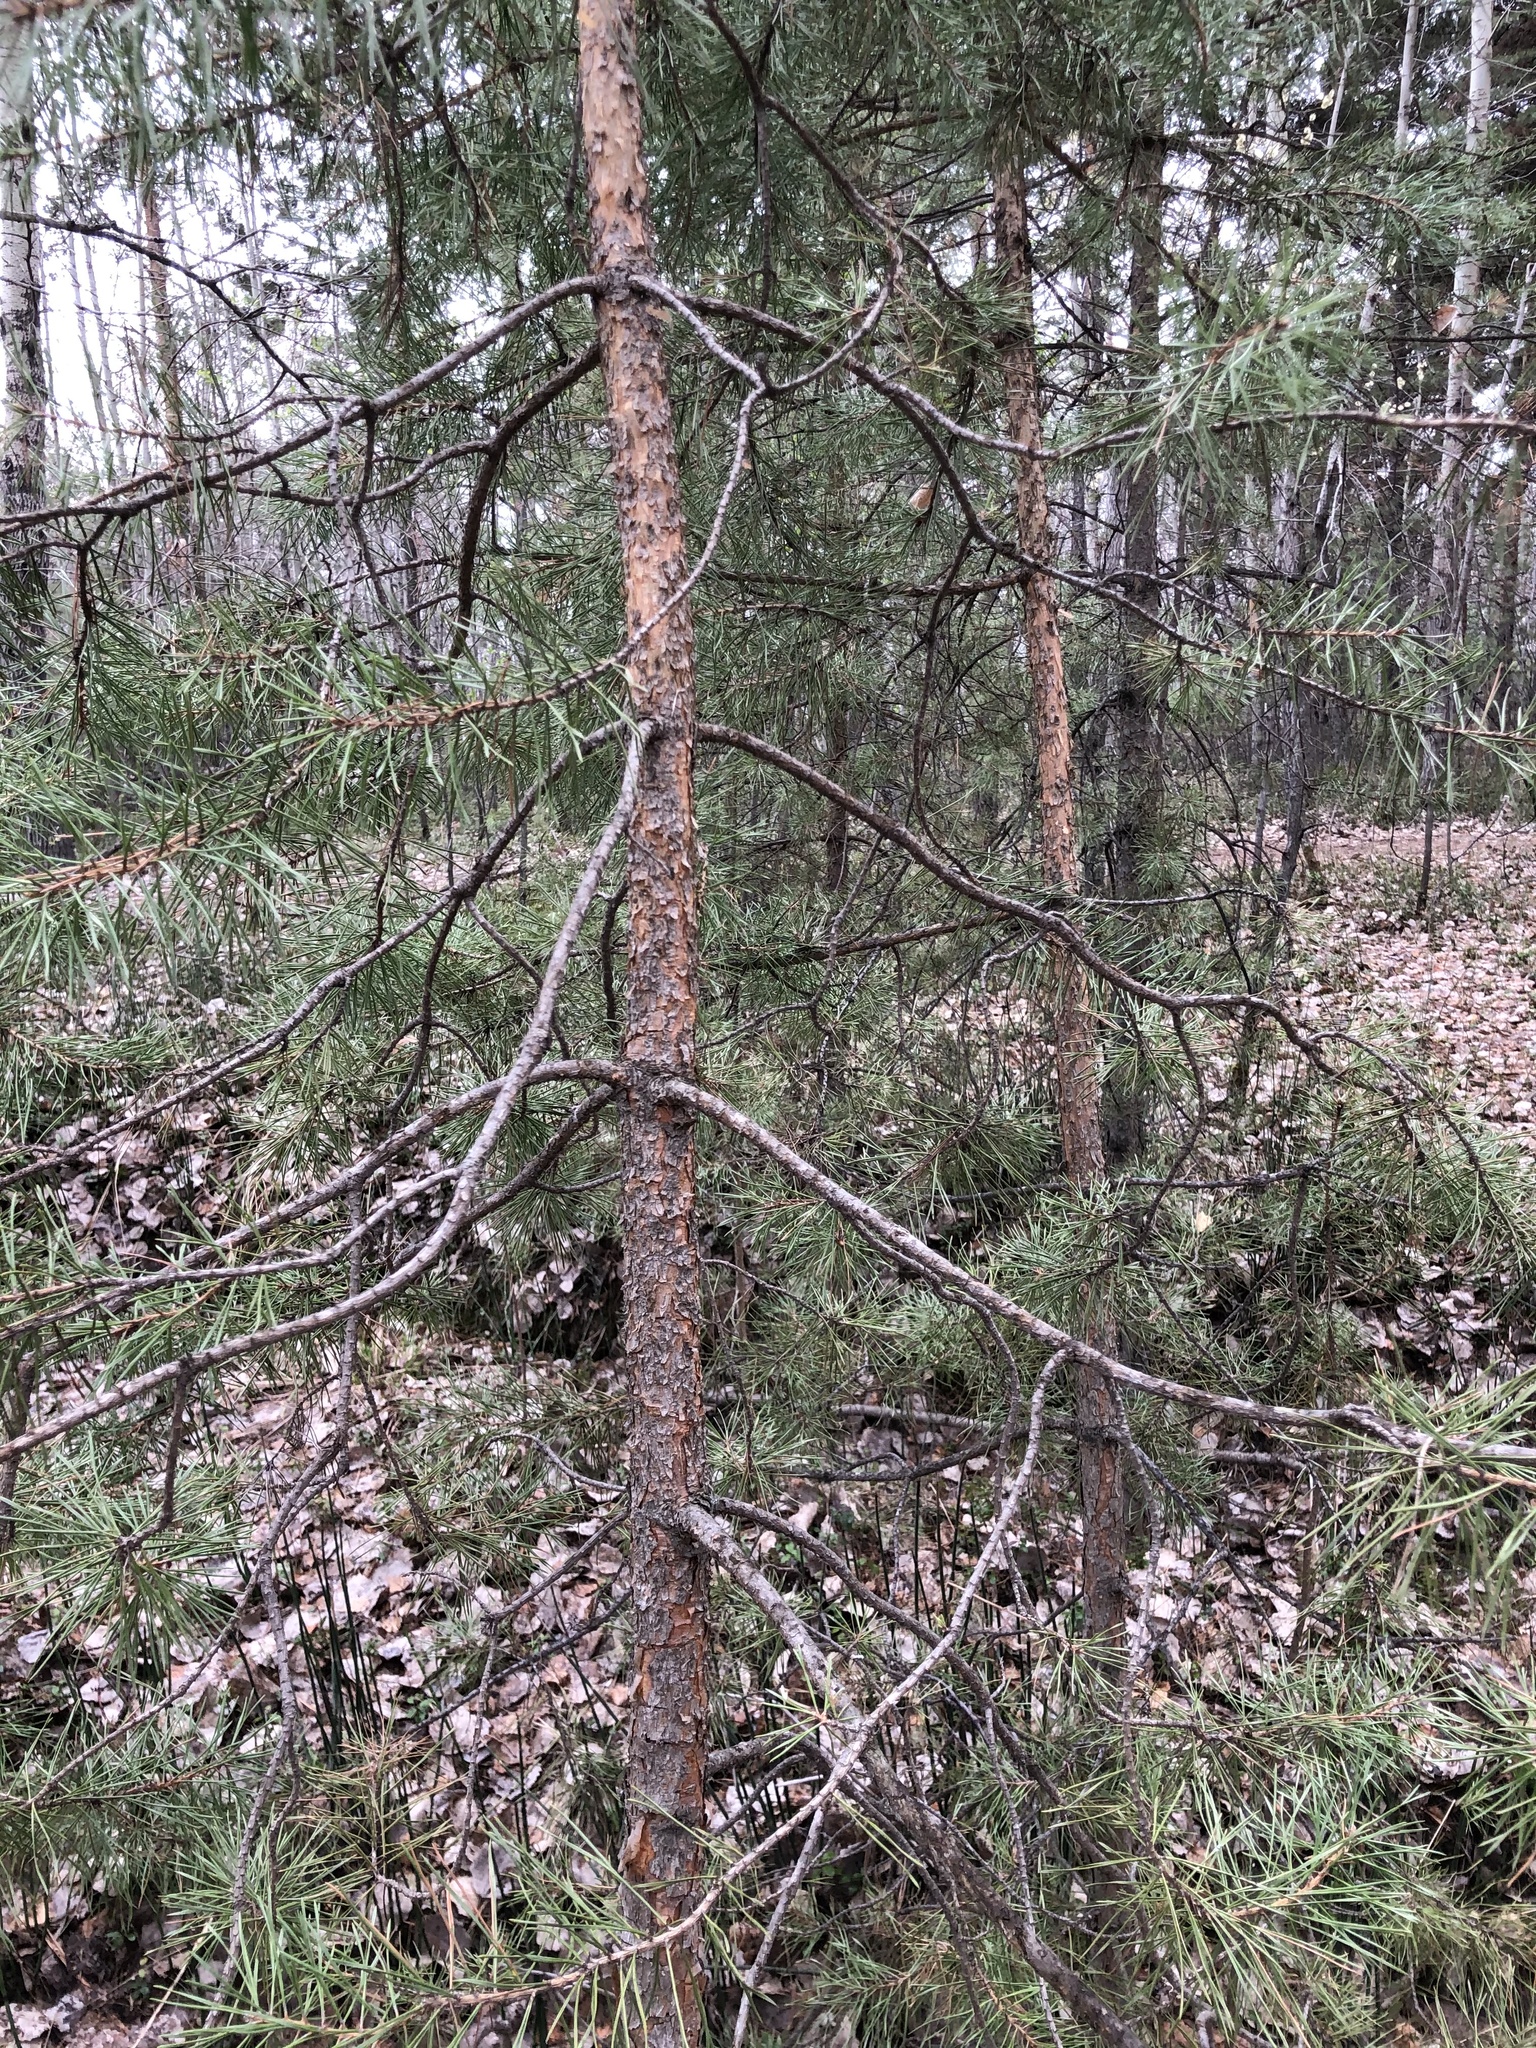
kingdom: Plantae
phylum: Tracheophyta
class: Pinopsida
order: Pinales
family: Pinaceae
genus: Pinus
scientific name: Pinus sylvestris
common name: Scots pine
